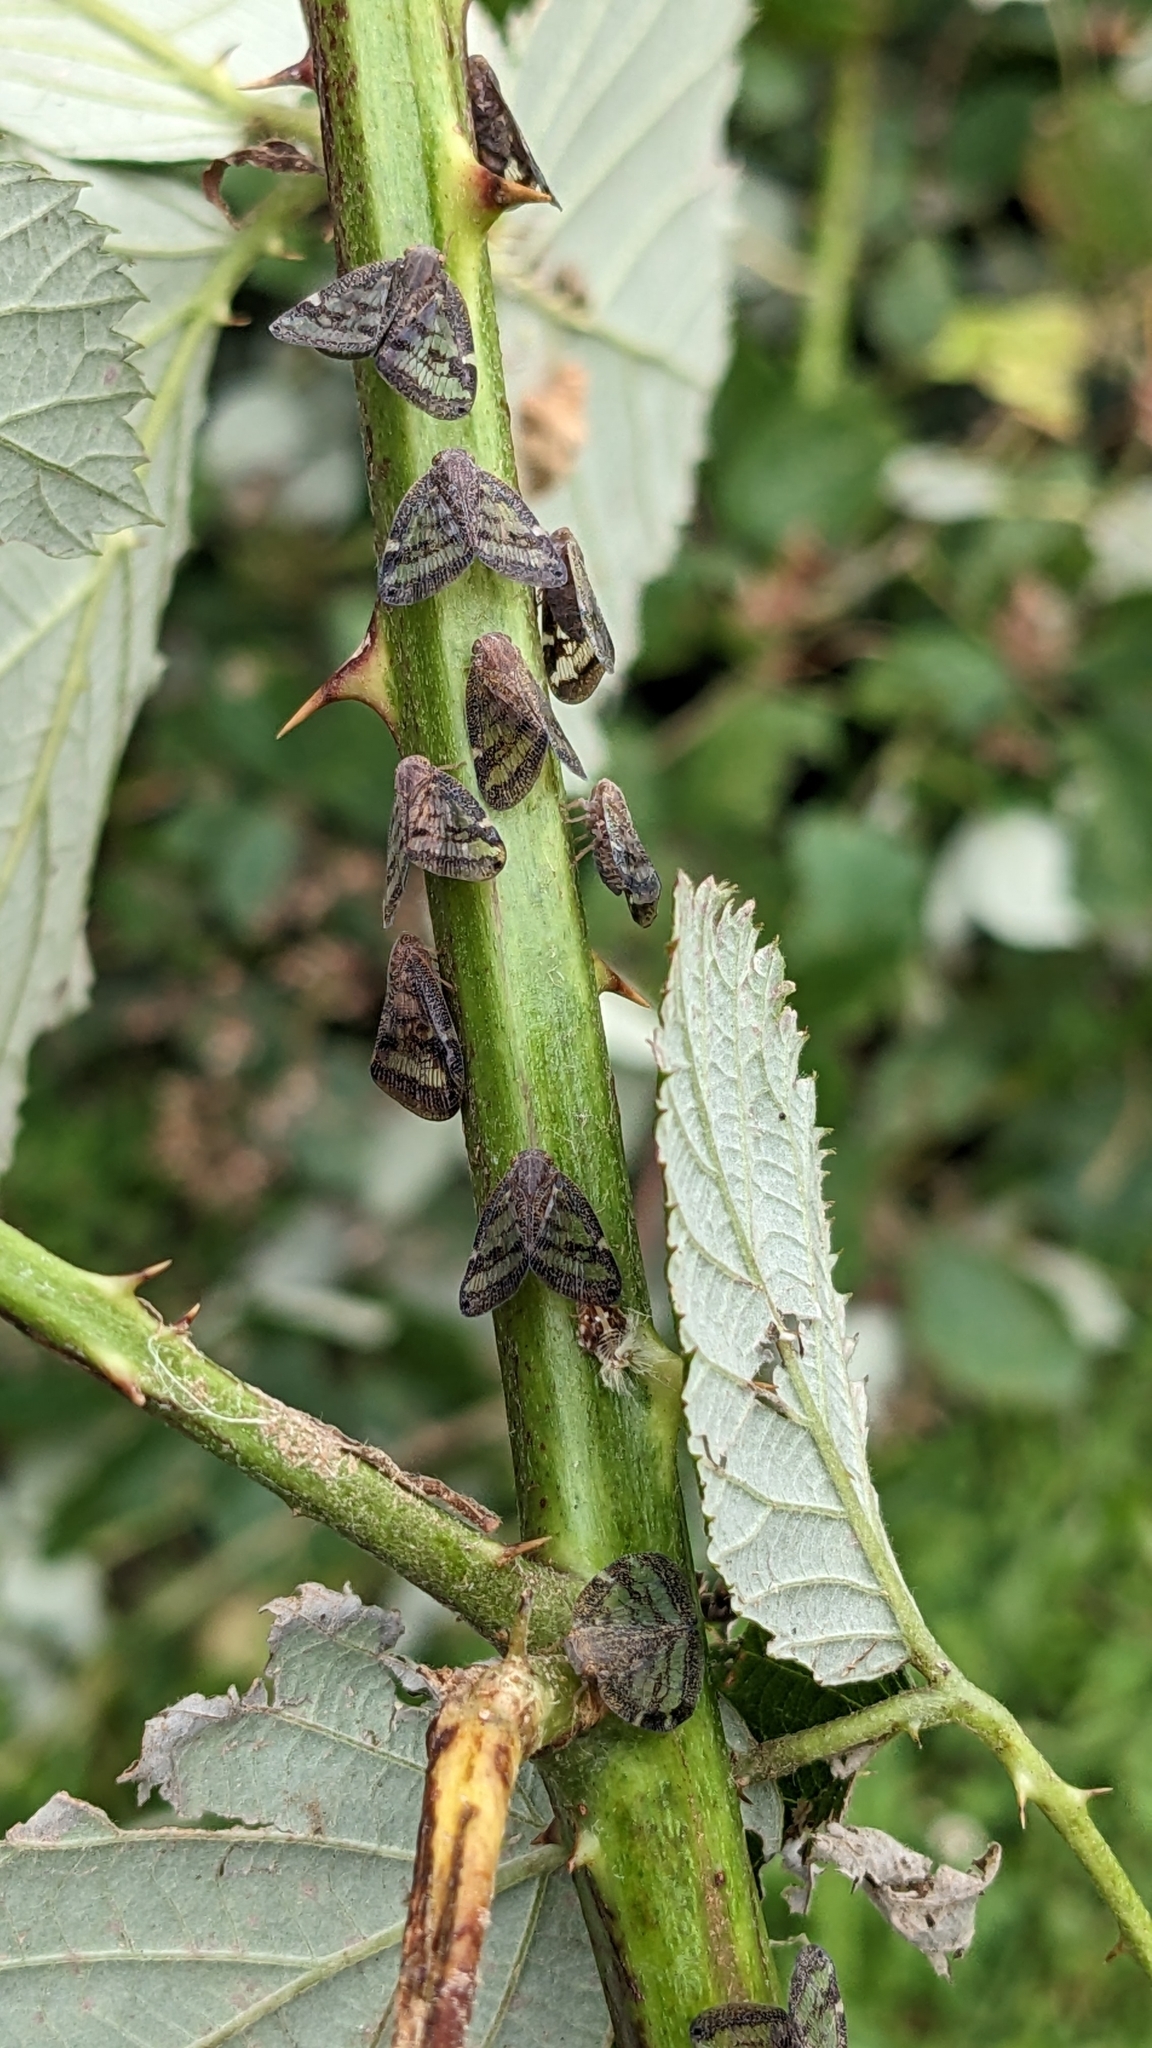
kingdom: Animalia
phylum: Arthropoda
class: Insecta
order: Hemiptera
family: Ricaniidae
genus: Scolypopa
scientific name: Scolypopa australis
